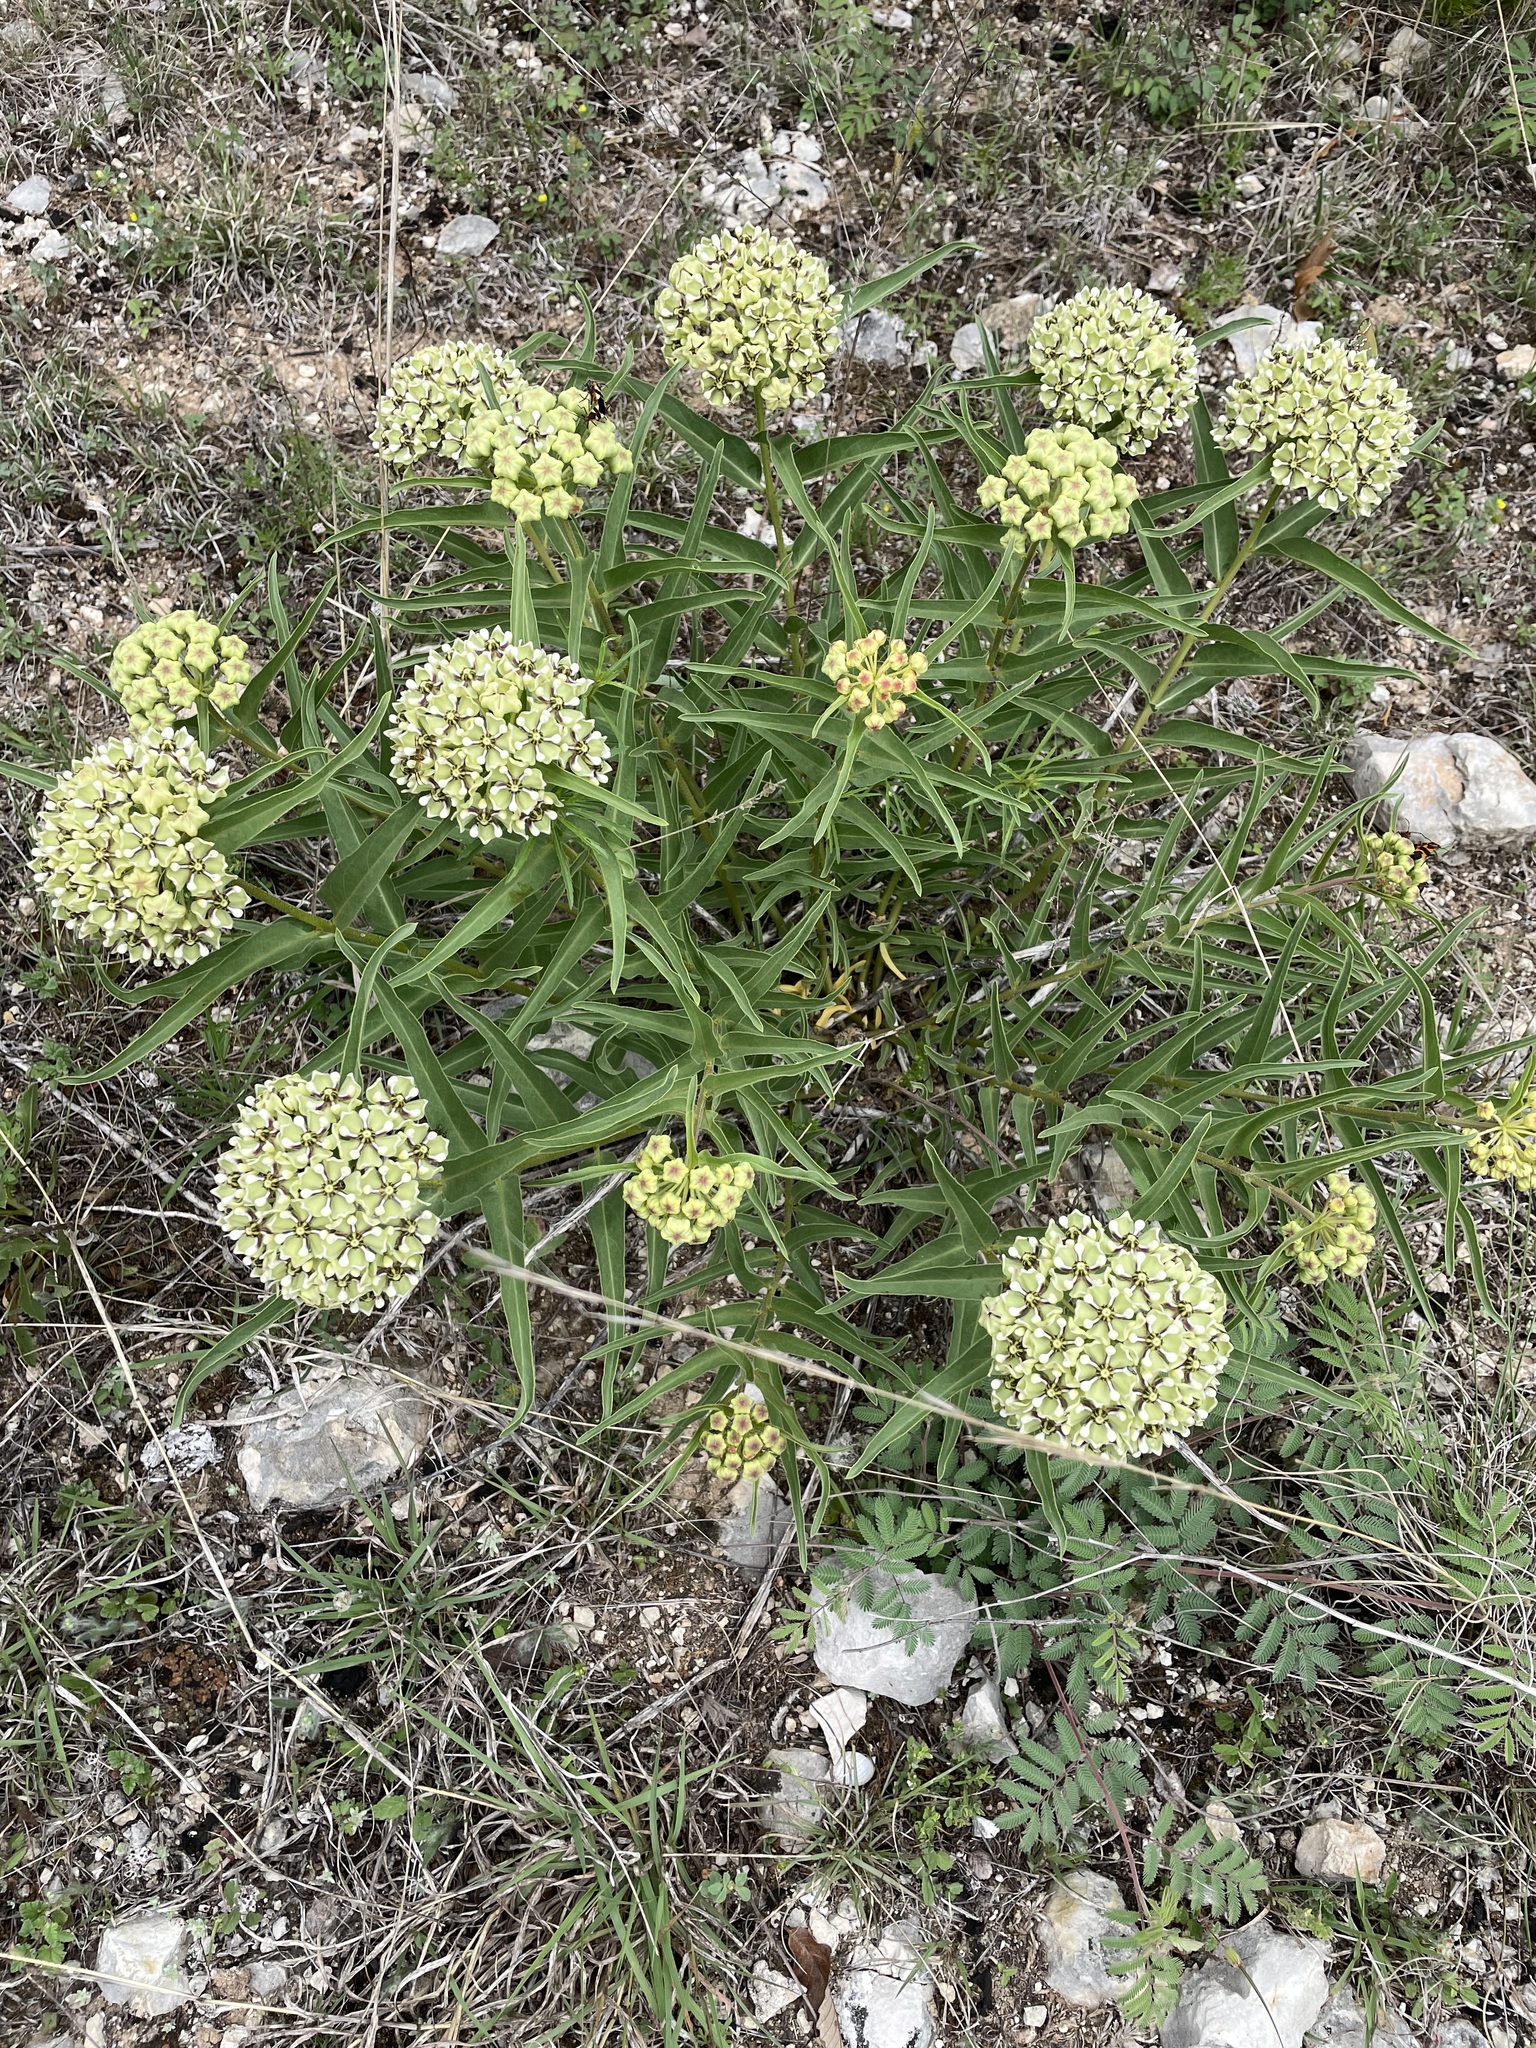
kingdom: Plantae
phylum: Tracheophyta
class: Magnoliopsida
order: Gentianales
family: Apocynaceae
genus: Asclepias
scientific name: Asclepias asperula
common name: Antelope horns
